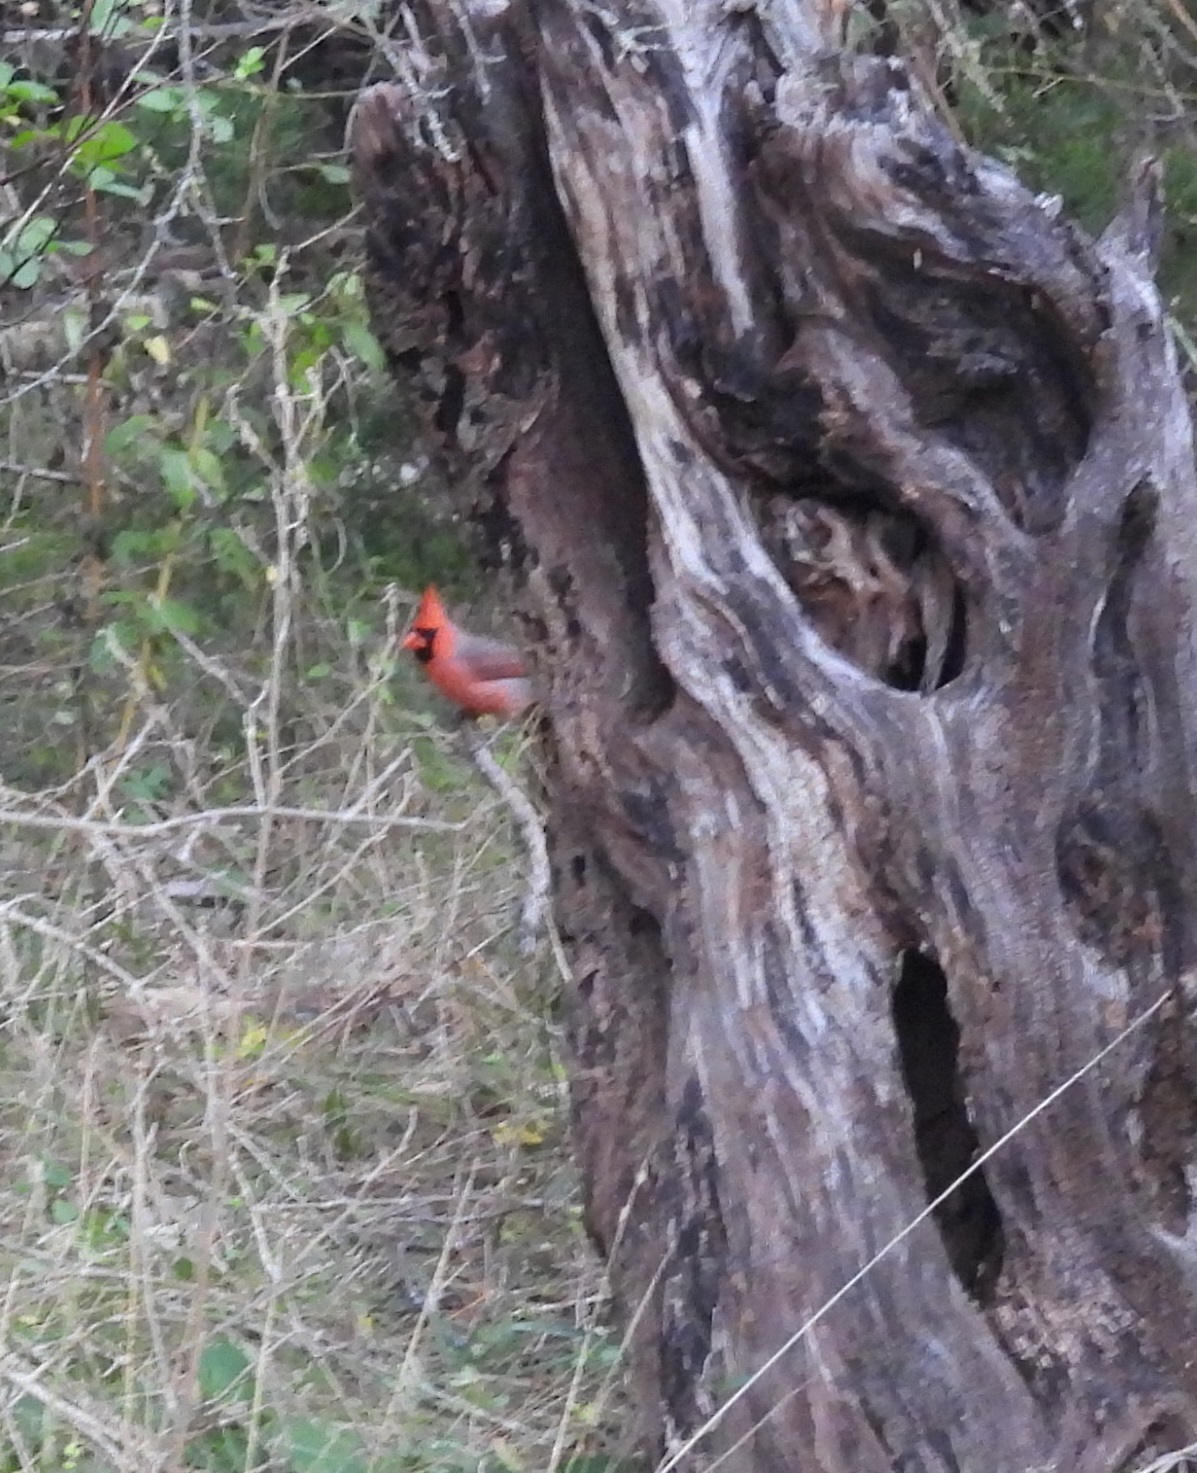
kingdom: Animalia
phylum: Chordata
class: Aves
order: Passeriformes
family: Cardinalidae
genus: Cardinalis
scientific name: Cardinalis cardinalis
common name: Northern cardinal
